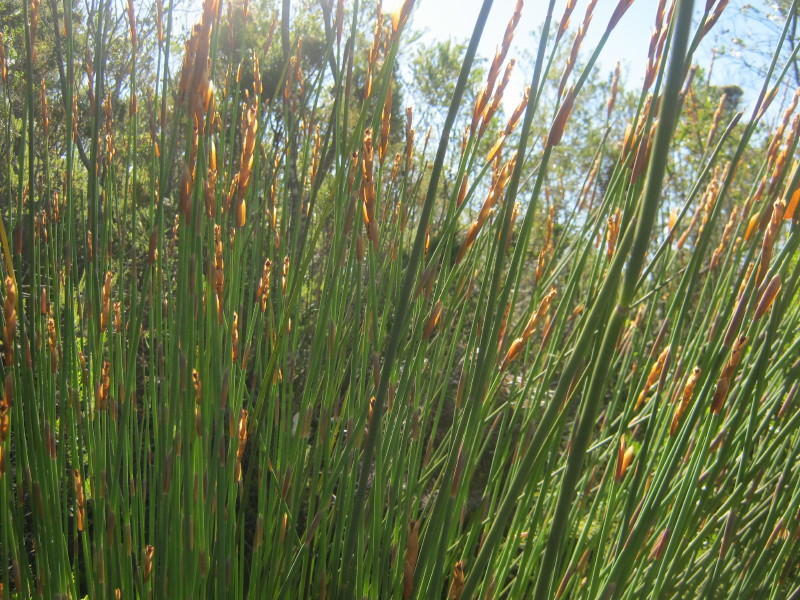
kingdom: Plantae
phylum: Tracheophyta
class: Liliopsida
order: Poales
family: Restionaceae
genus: Elegia
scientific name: Elegia thyrsoidea
